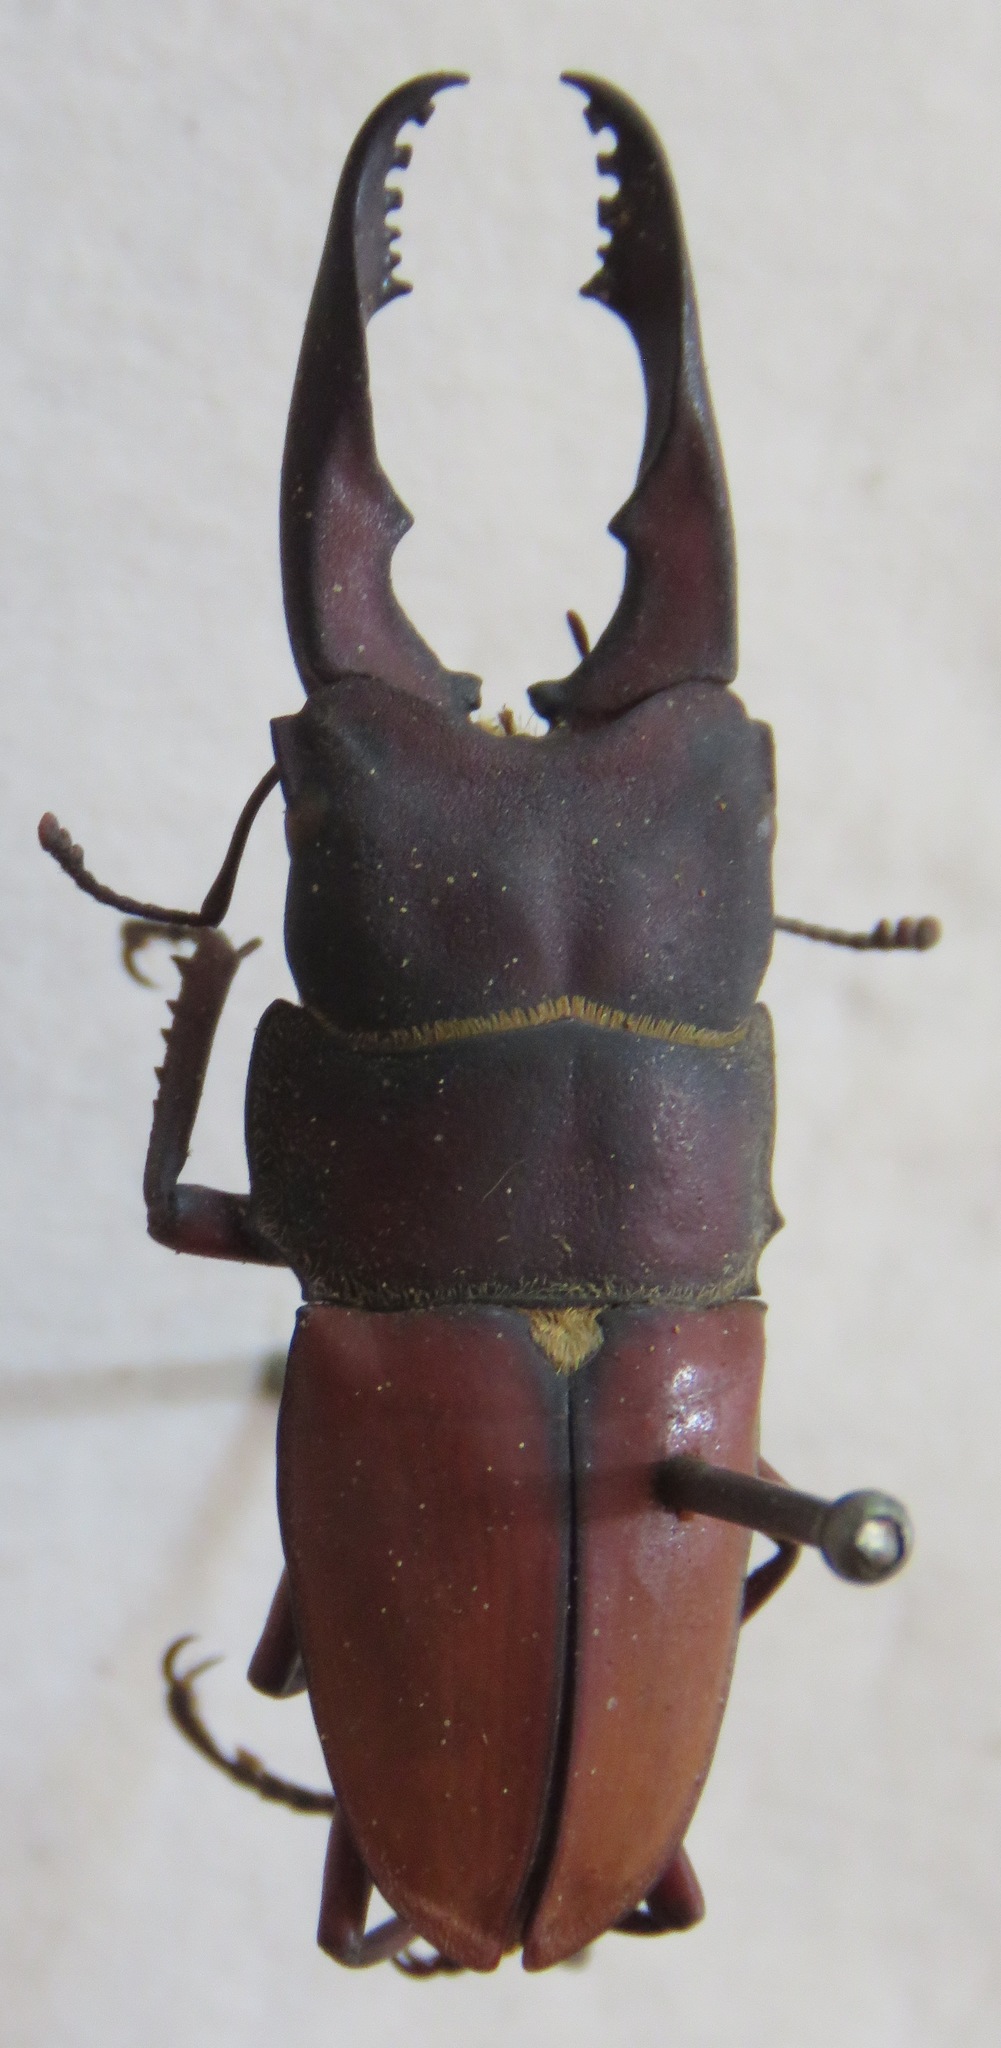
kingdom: Animalia
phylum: Arthropoda
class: Insecta
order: Coleoptera
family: Lucanidae
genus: Leptinopterus
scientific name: Leptinopterus burmeisteri
